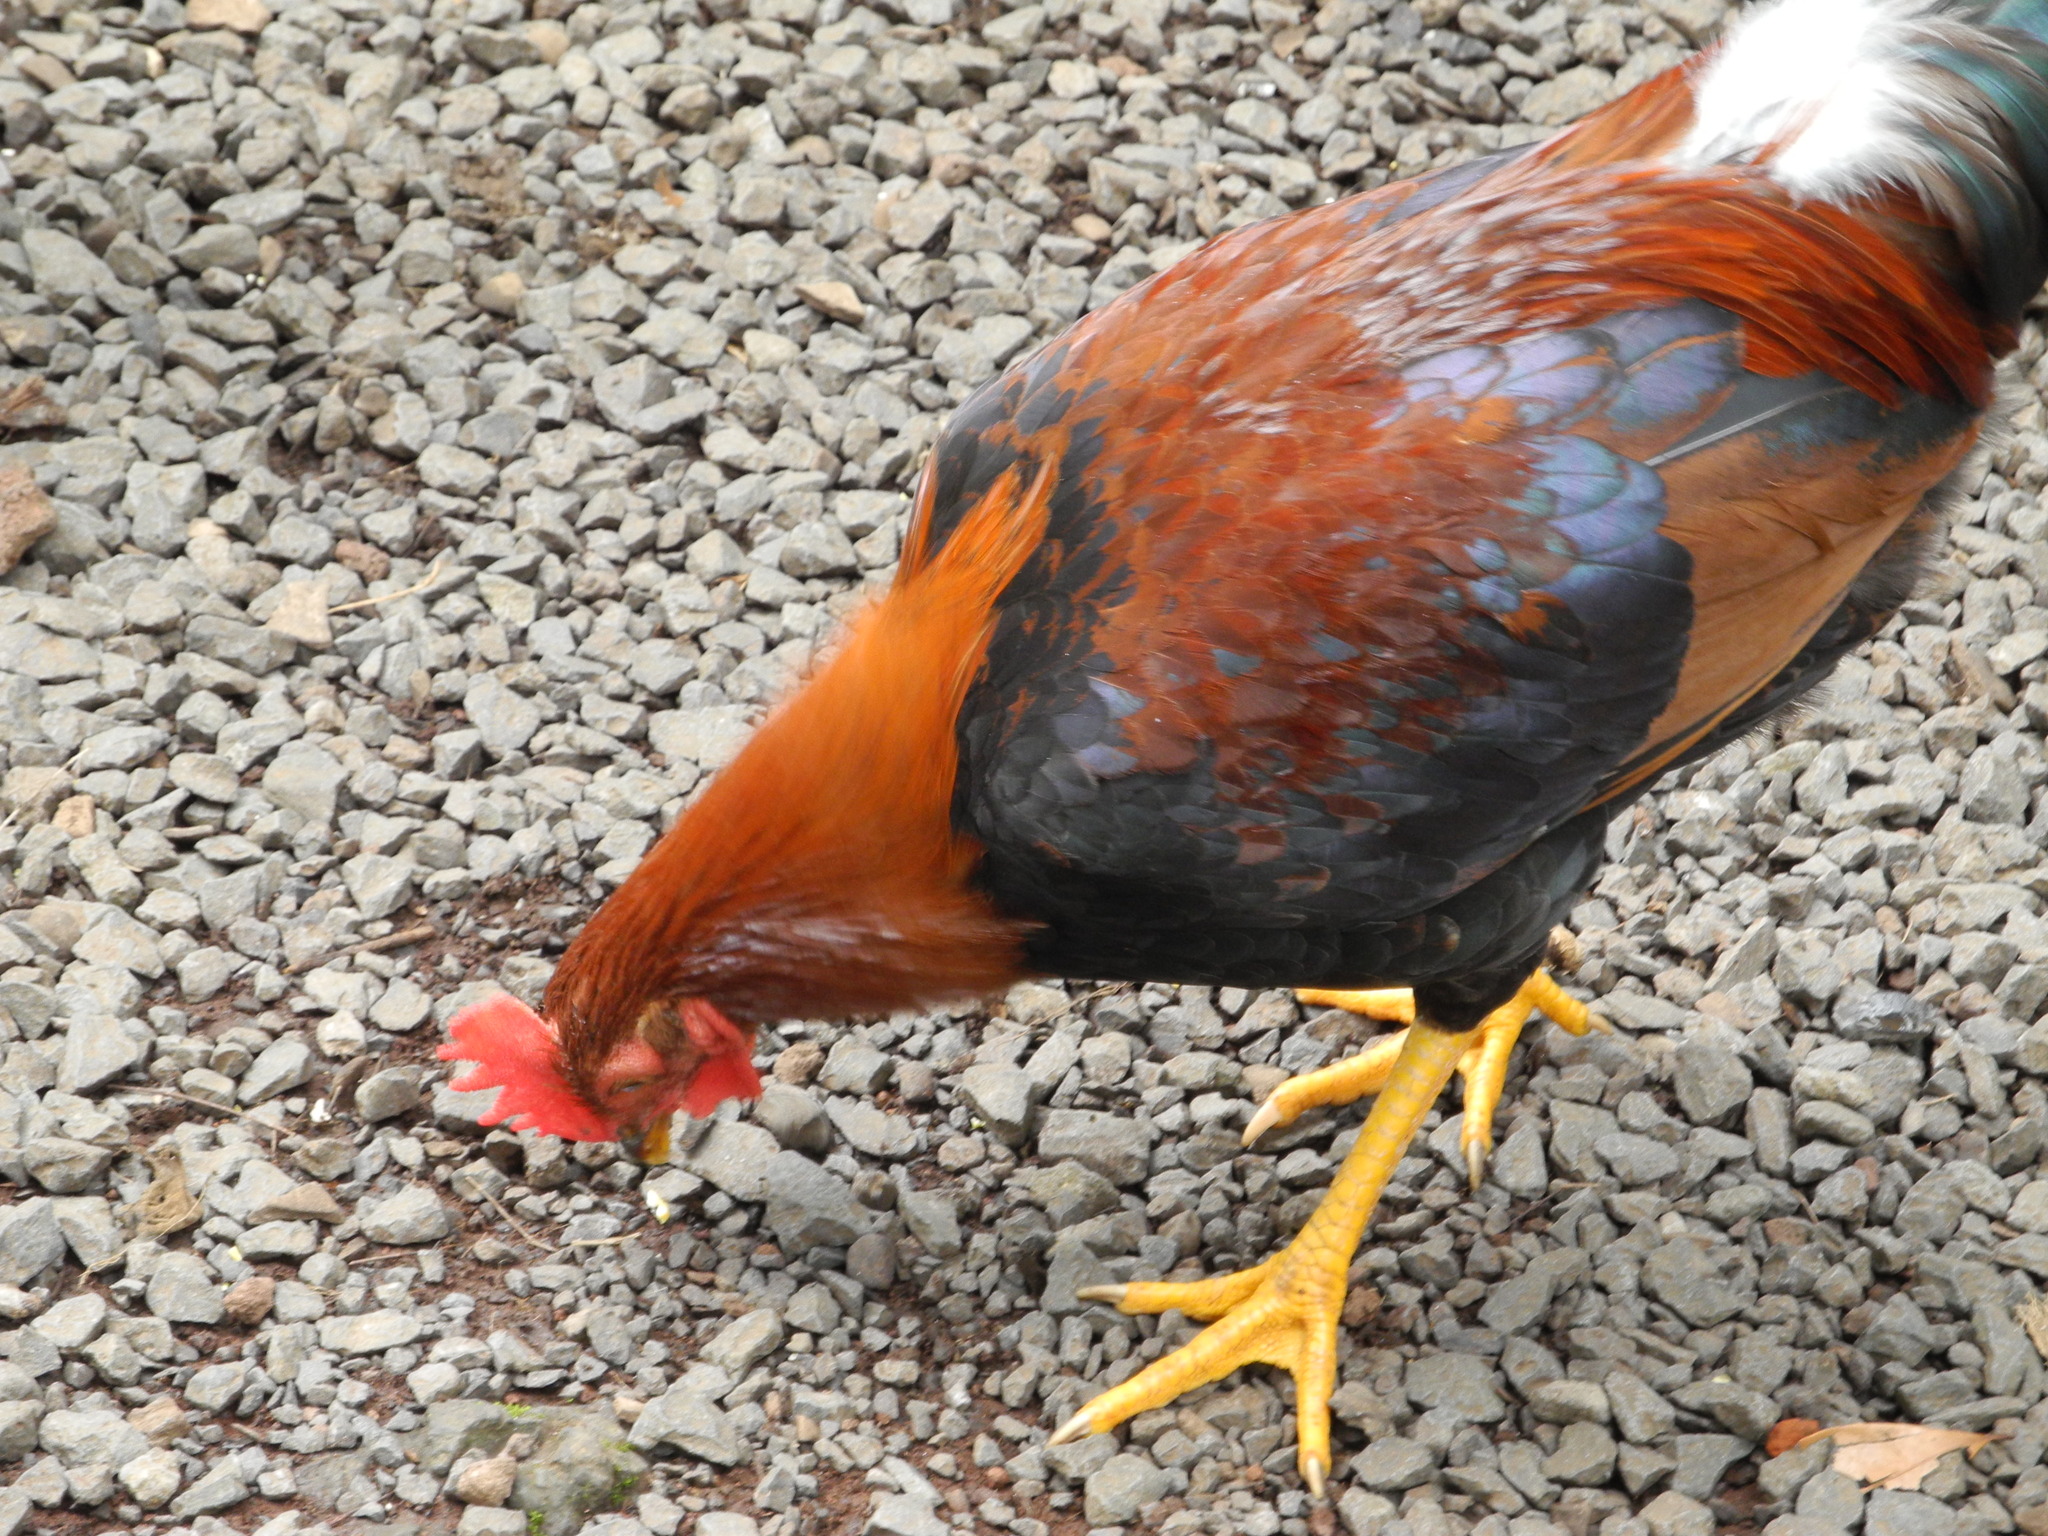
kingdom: Animalia
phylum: Chordata
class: Aves
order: Galliformes
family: Phasianidae
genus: Gallus
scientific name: Gallus gallus
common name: Red junglefowl
